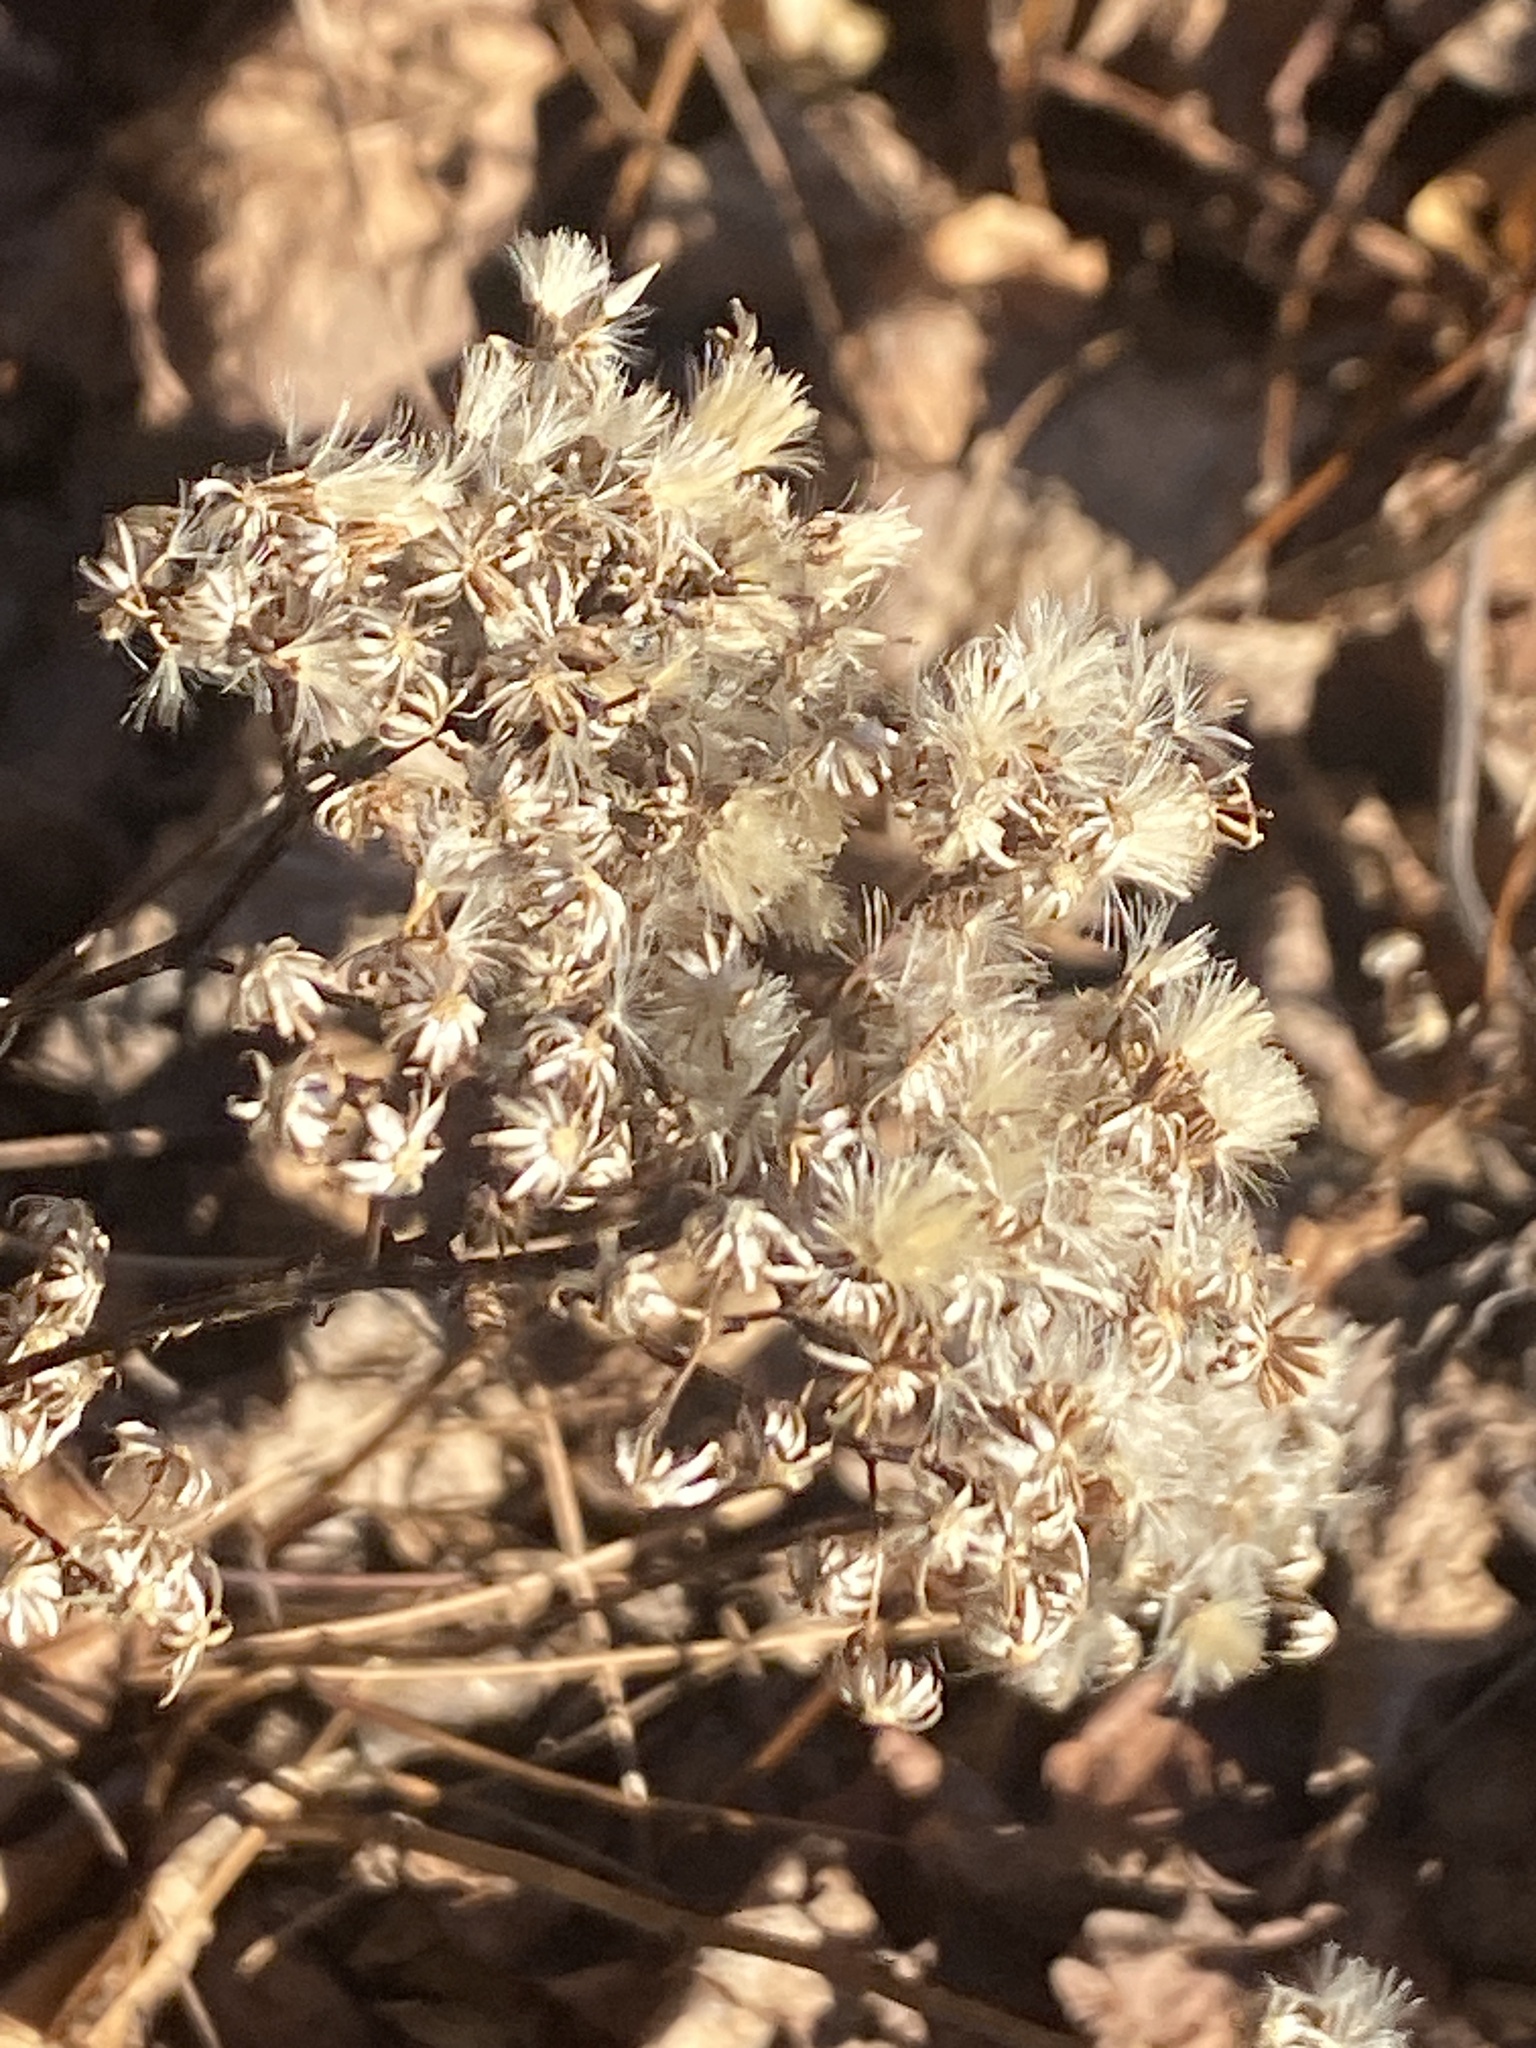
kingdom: Plantae
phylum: Tracheophyta
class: Magnoliopsida
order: Asterales
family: Asteraceae
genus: Eurybia
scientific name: Eurybia divaricata
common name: White wood aster
